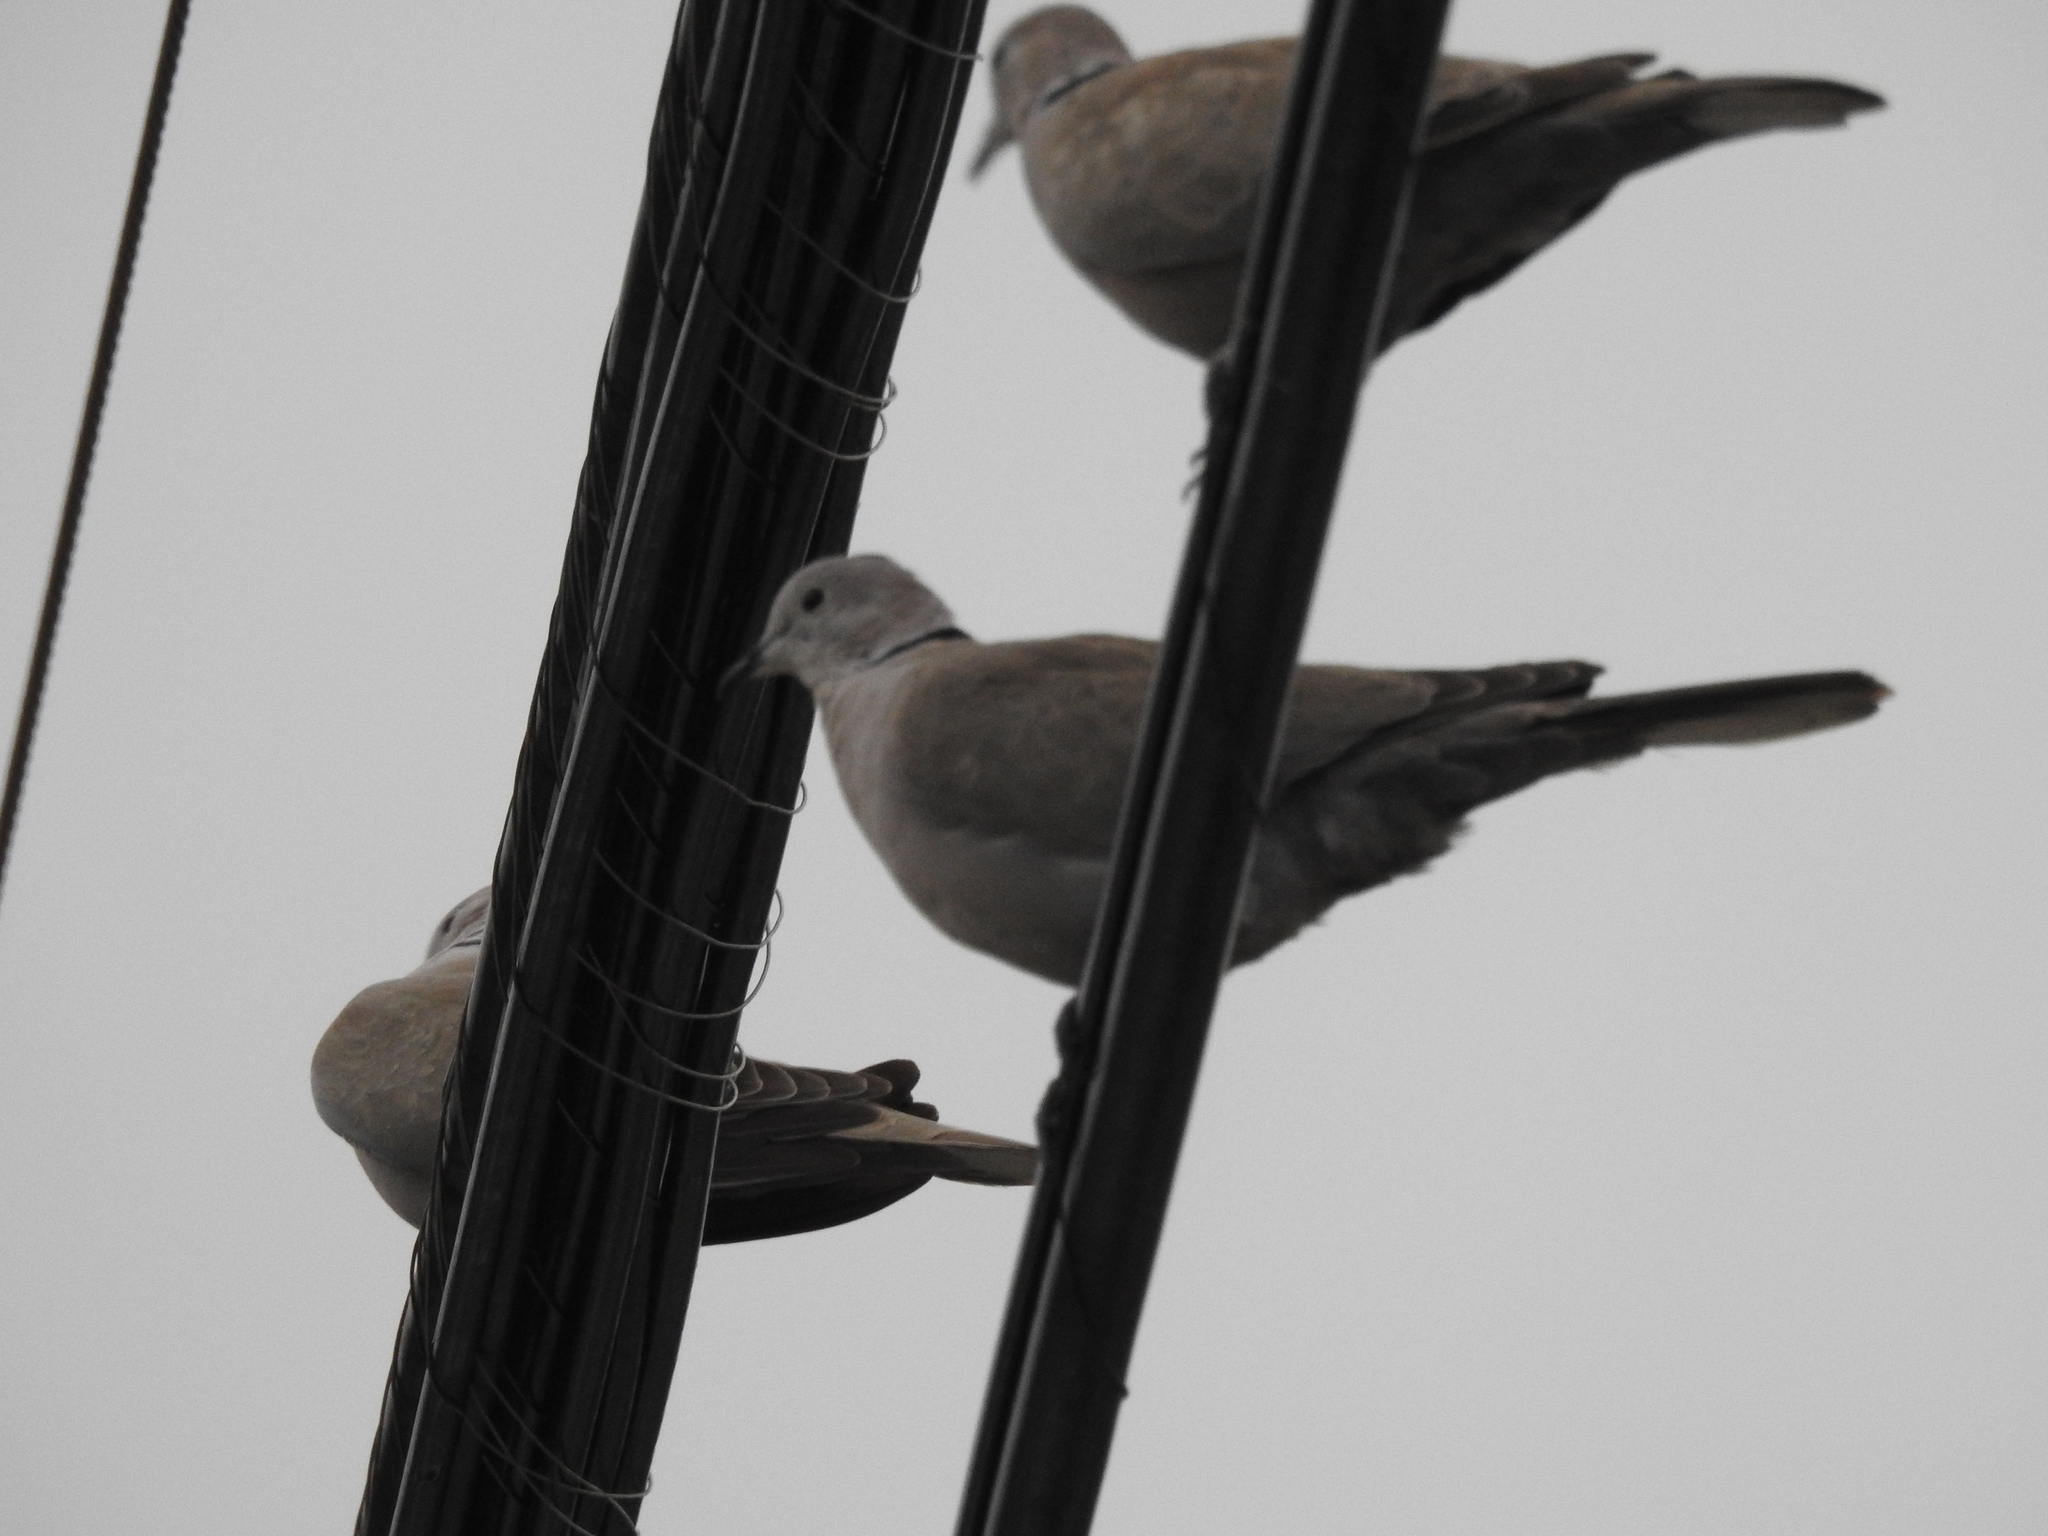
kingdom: Animalia
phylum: Chordata
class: Aves
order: Columbiformes
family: Columbidae
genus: Streptopelia
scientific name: Streptopelia decaocto
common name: Eurasian collared dove
